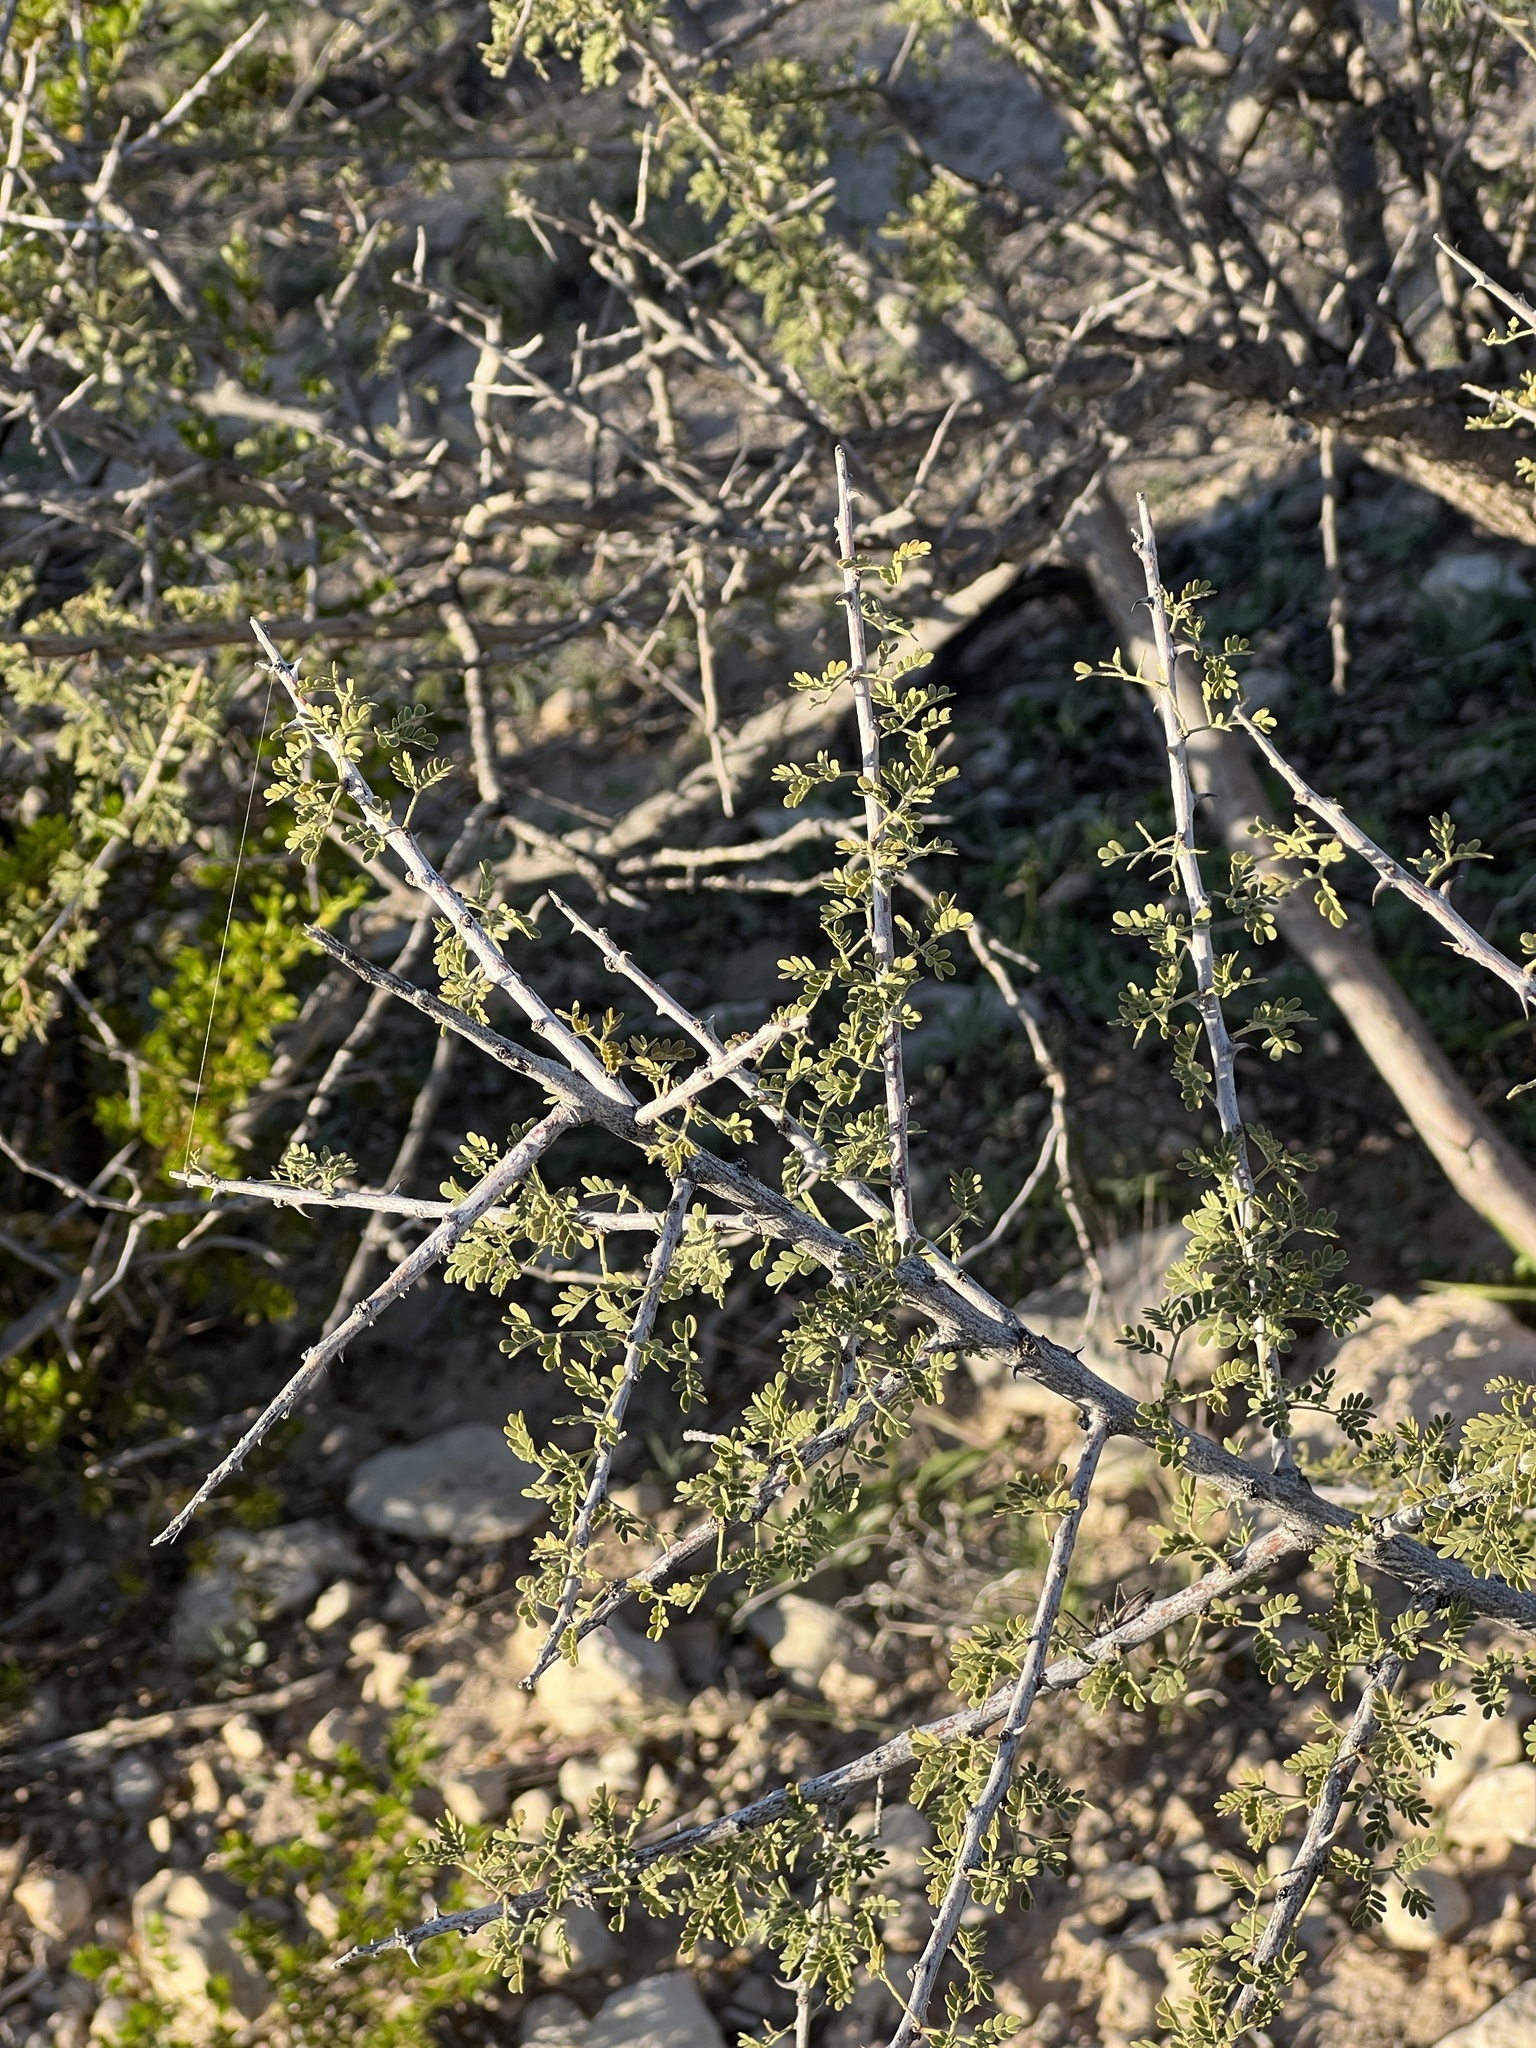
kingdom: Plantae
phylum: Tracheophyta
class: Magnoliopsida
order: Fabales
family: Fabaceae
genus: Senegalia
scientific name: Senegalia greggii
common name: Texas-mimosa
